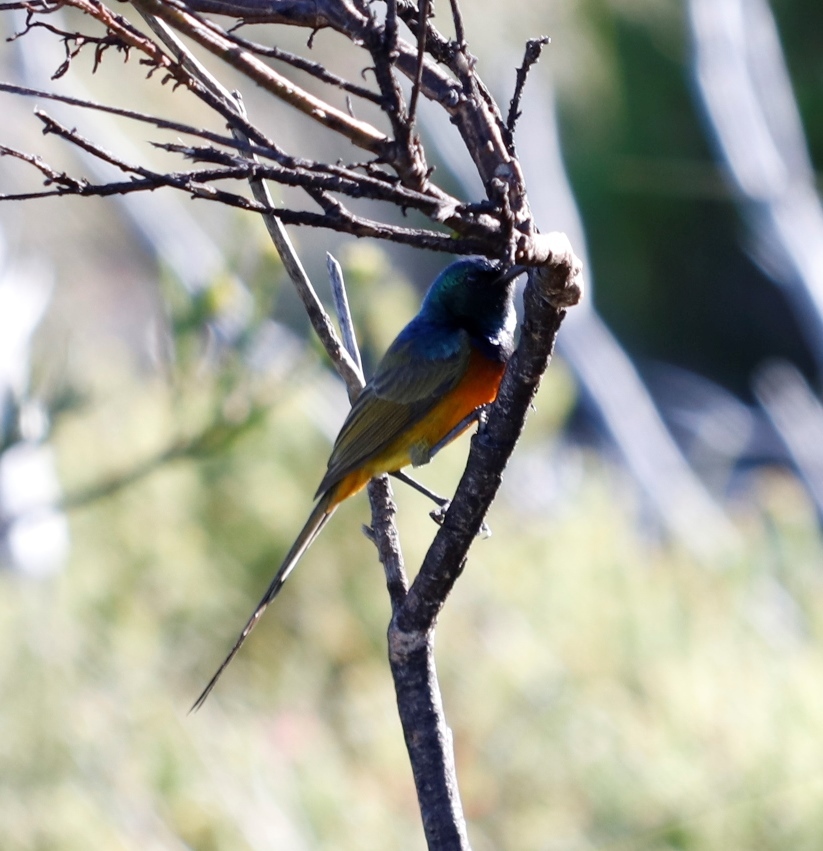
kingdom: Animalia
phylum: Chordata
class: Aves
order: Passeriformes
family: Nectariniidae
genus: Anthobaphes
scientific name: Anthobaphes violacea
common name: Orange-breasted sunbird
